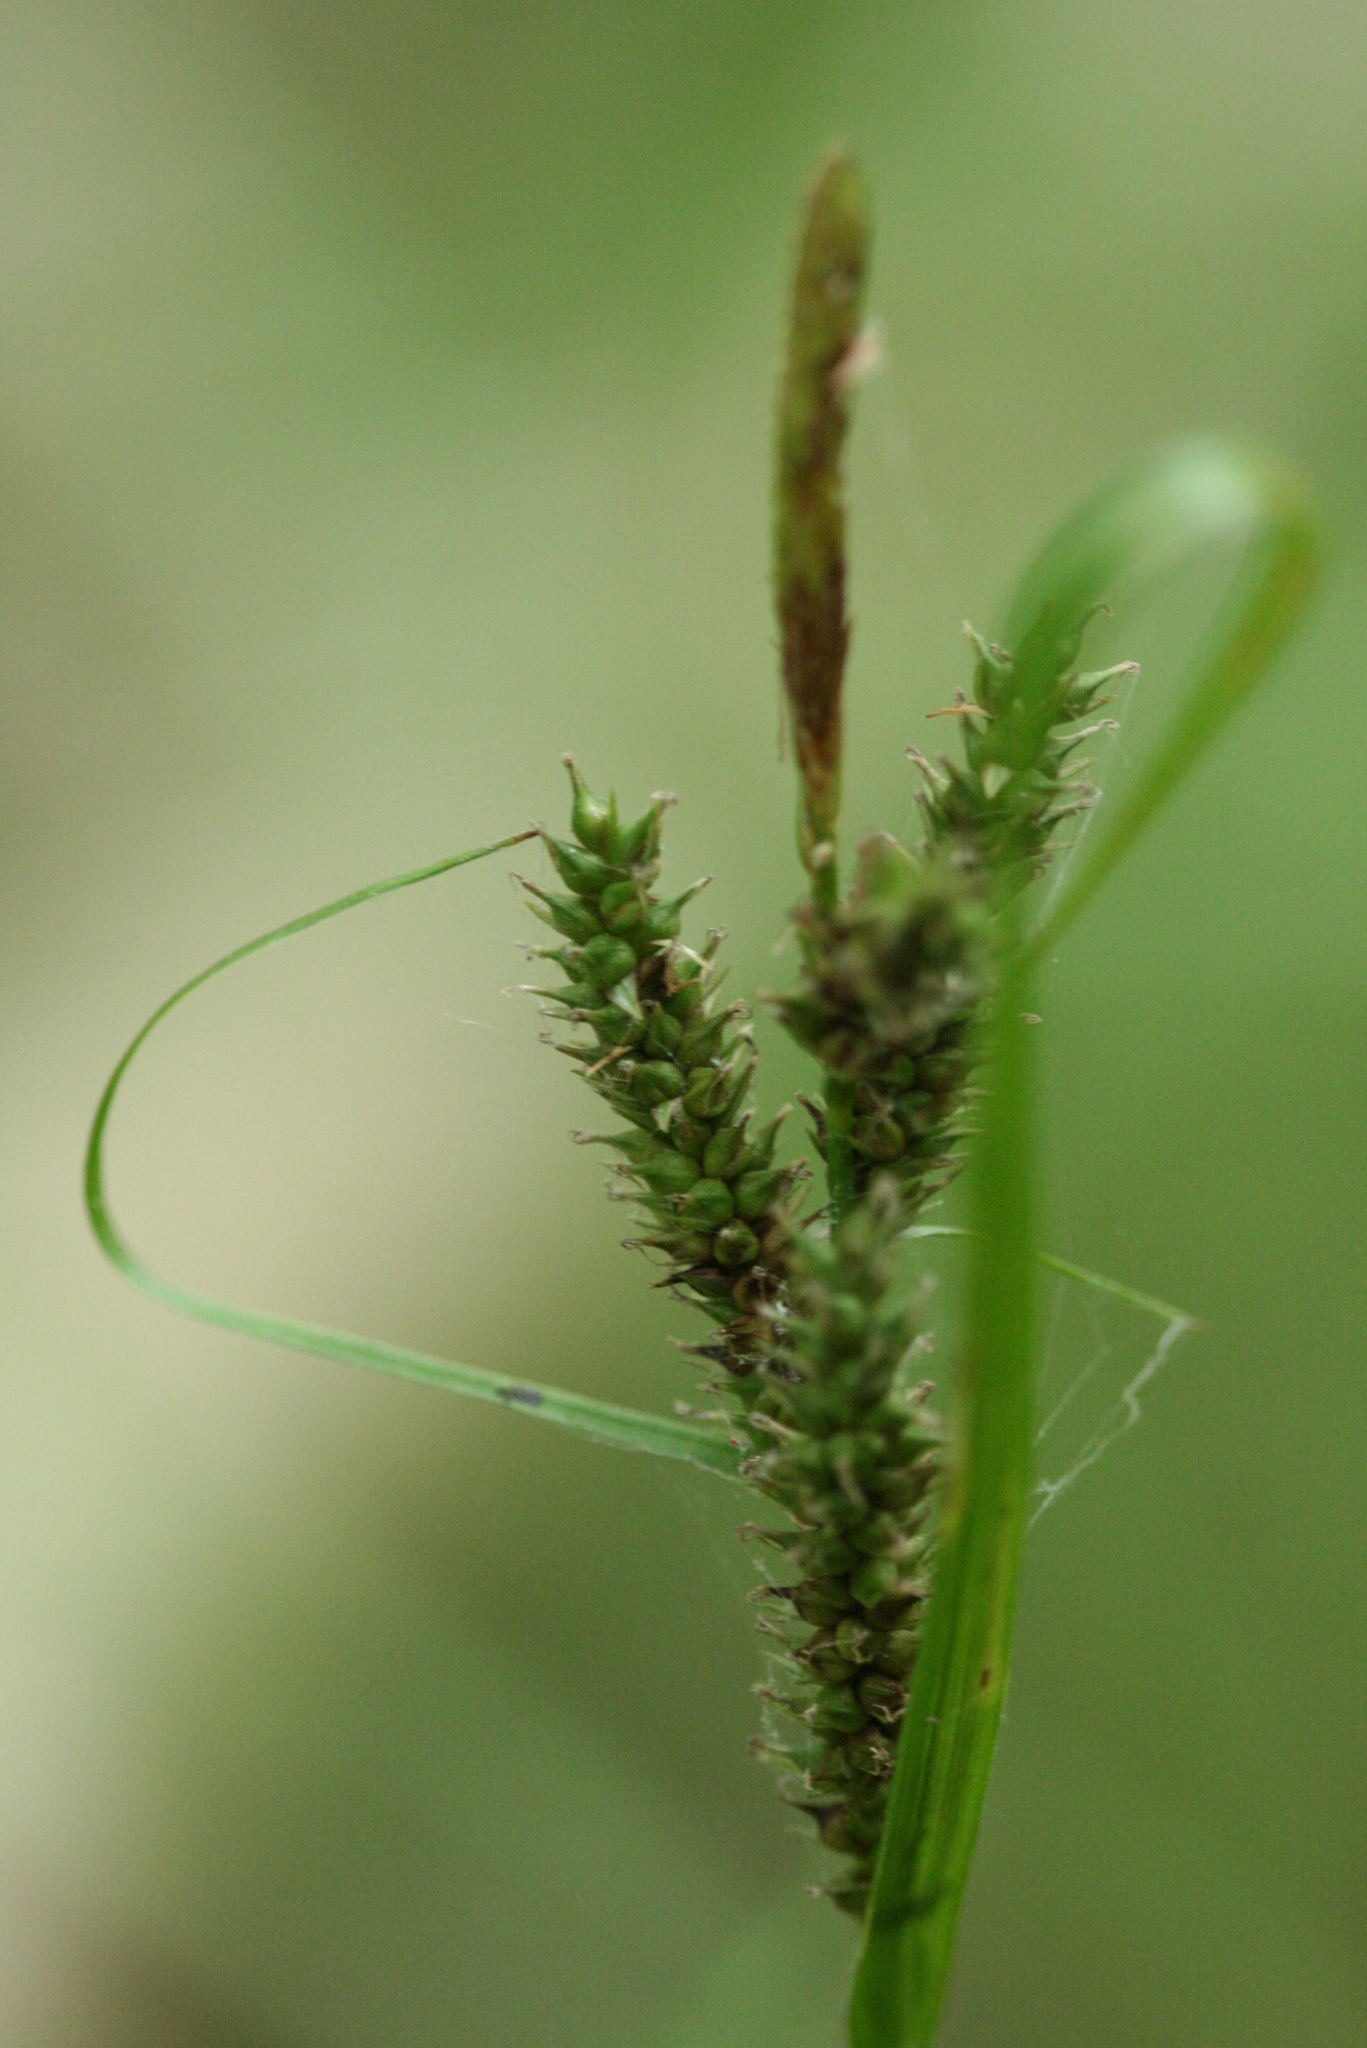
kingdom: Plantae
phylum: Tracheophyta
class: Liliopsida
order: Poales
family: Cyperaceae
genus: Carex
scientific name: Carex scabrata
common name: Eastern rough sedge
